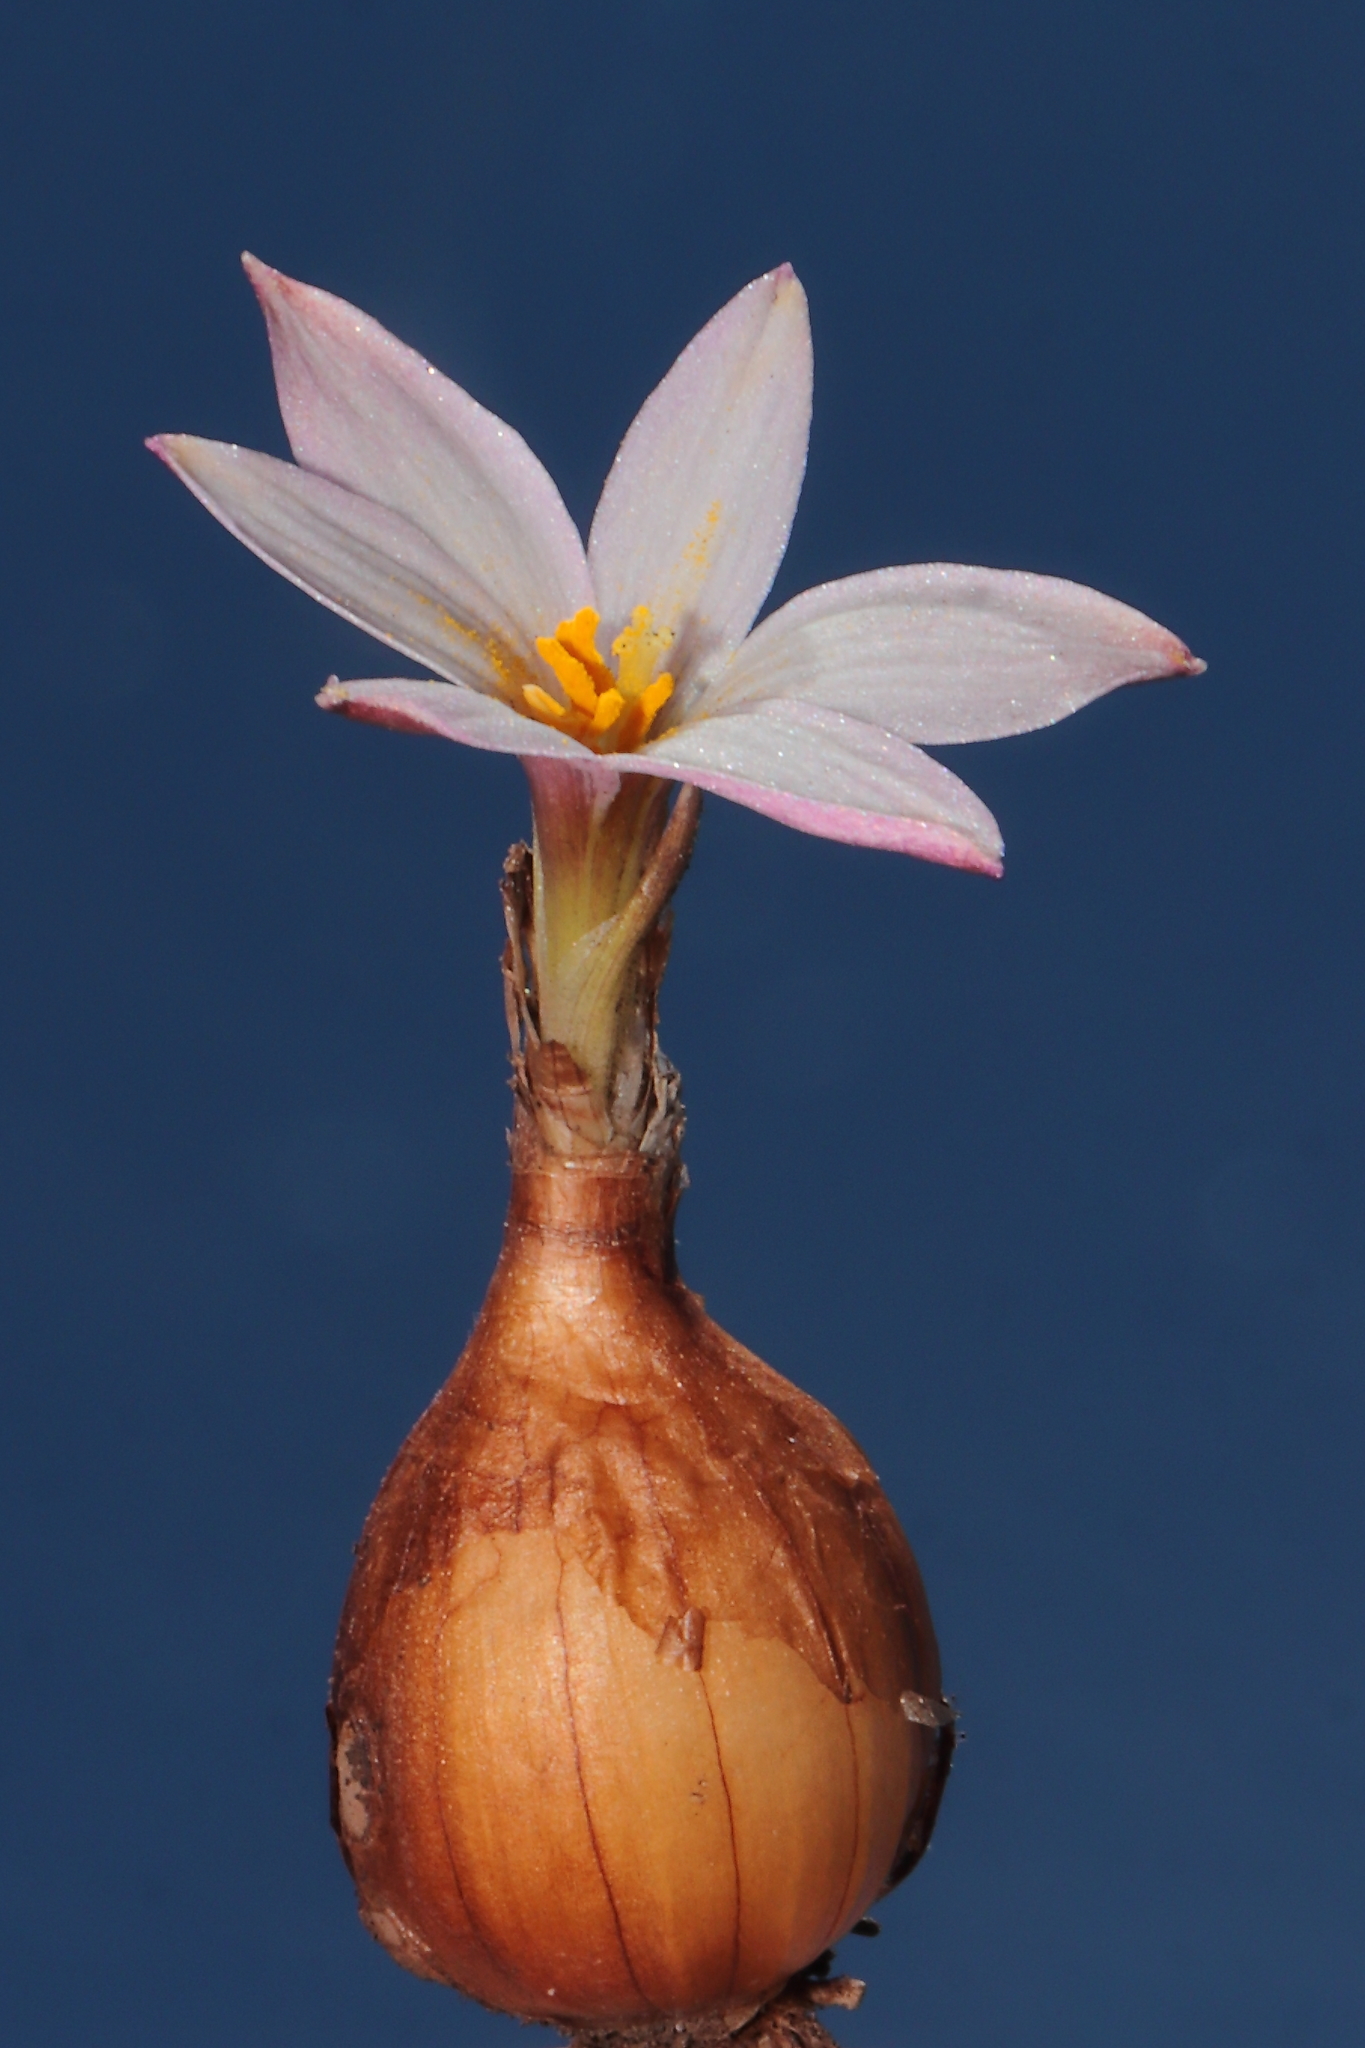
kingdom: Plantae
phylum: Tracheophyta
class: Liliopsida
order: Asparagales
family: Amaryllidaceae
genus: Zephyranthes
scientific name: Zephyranthes andina
